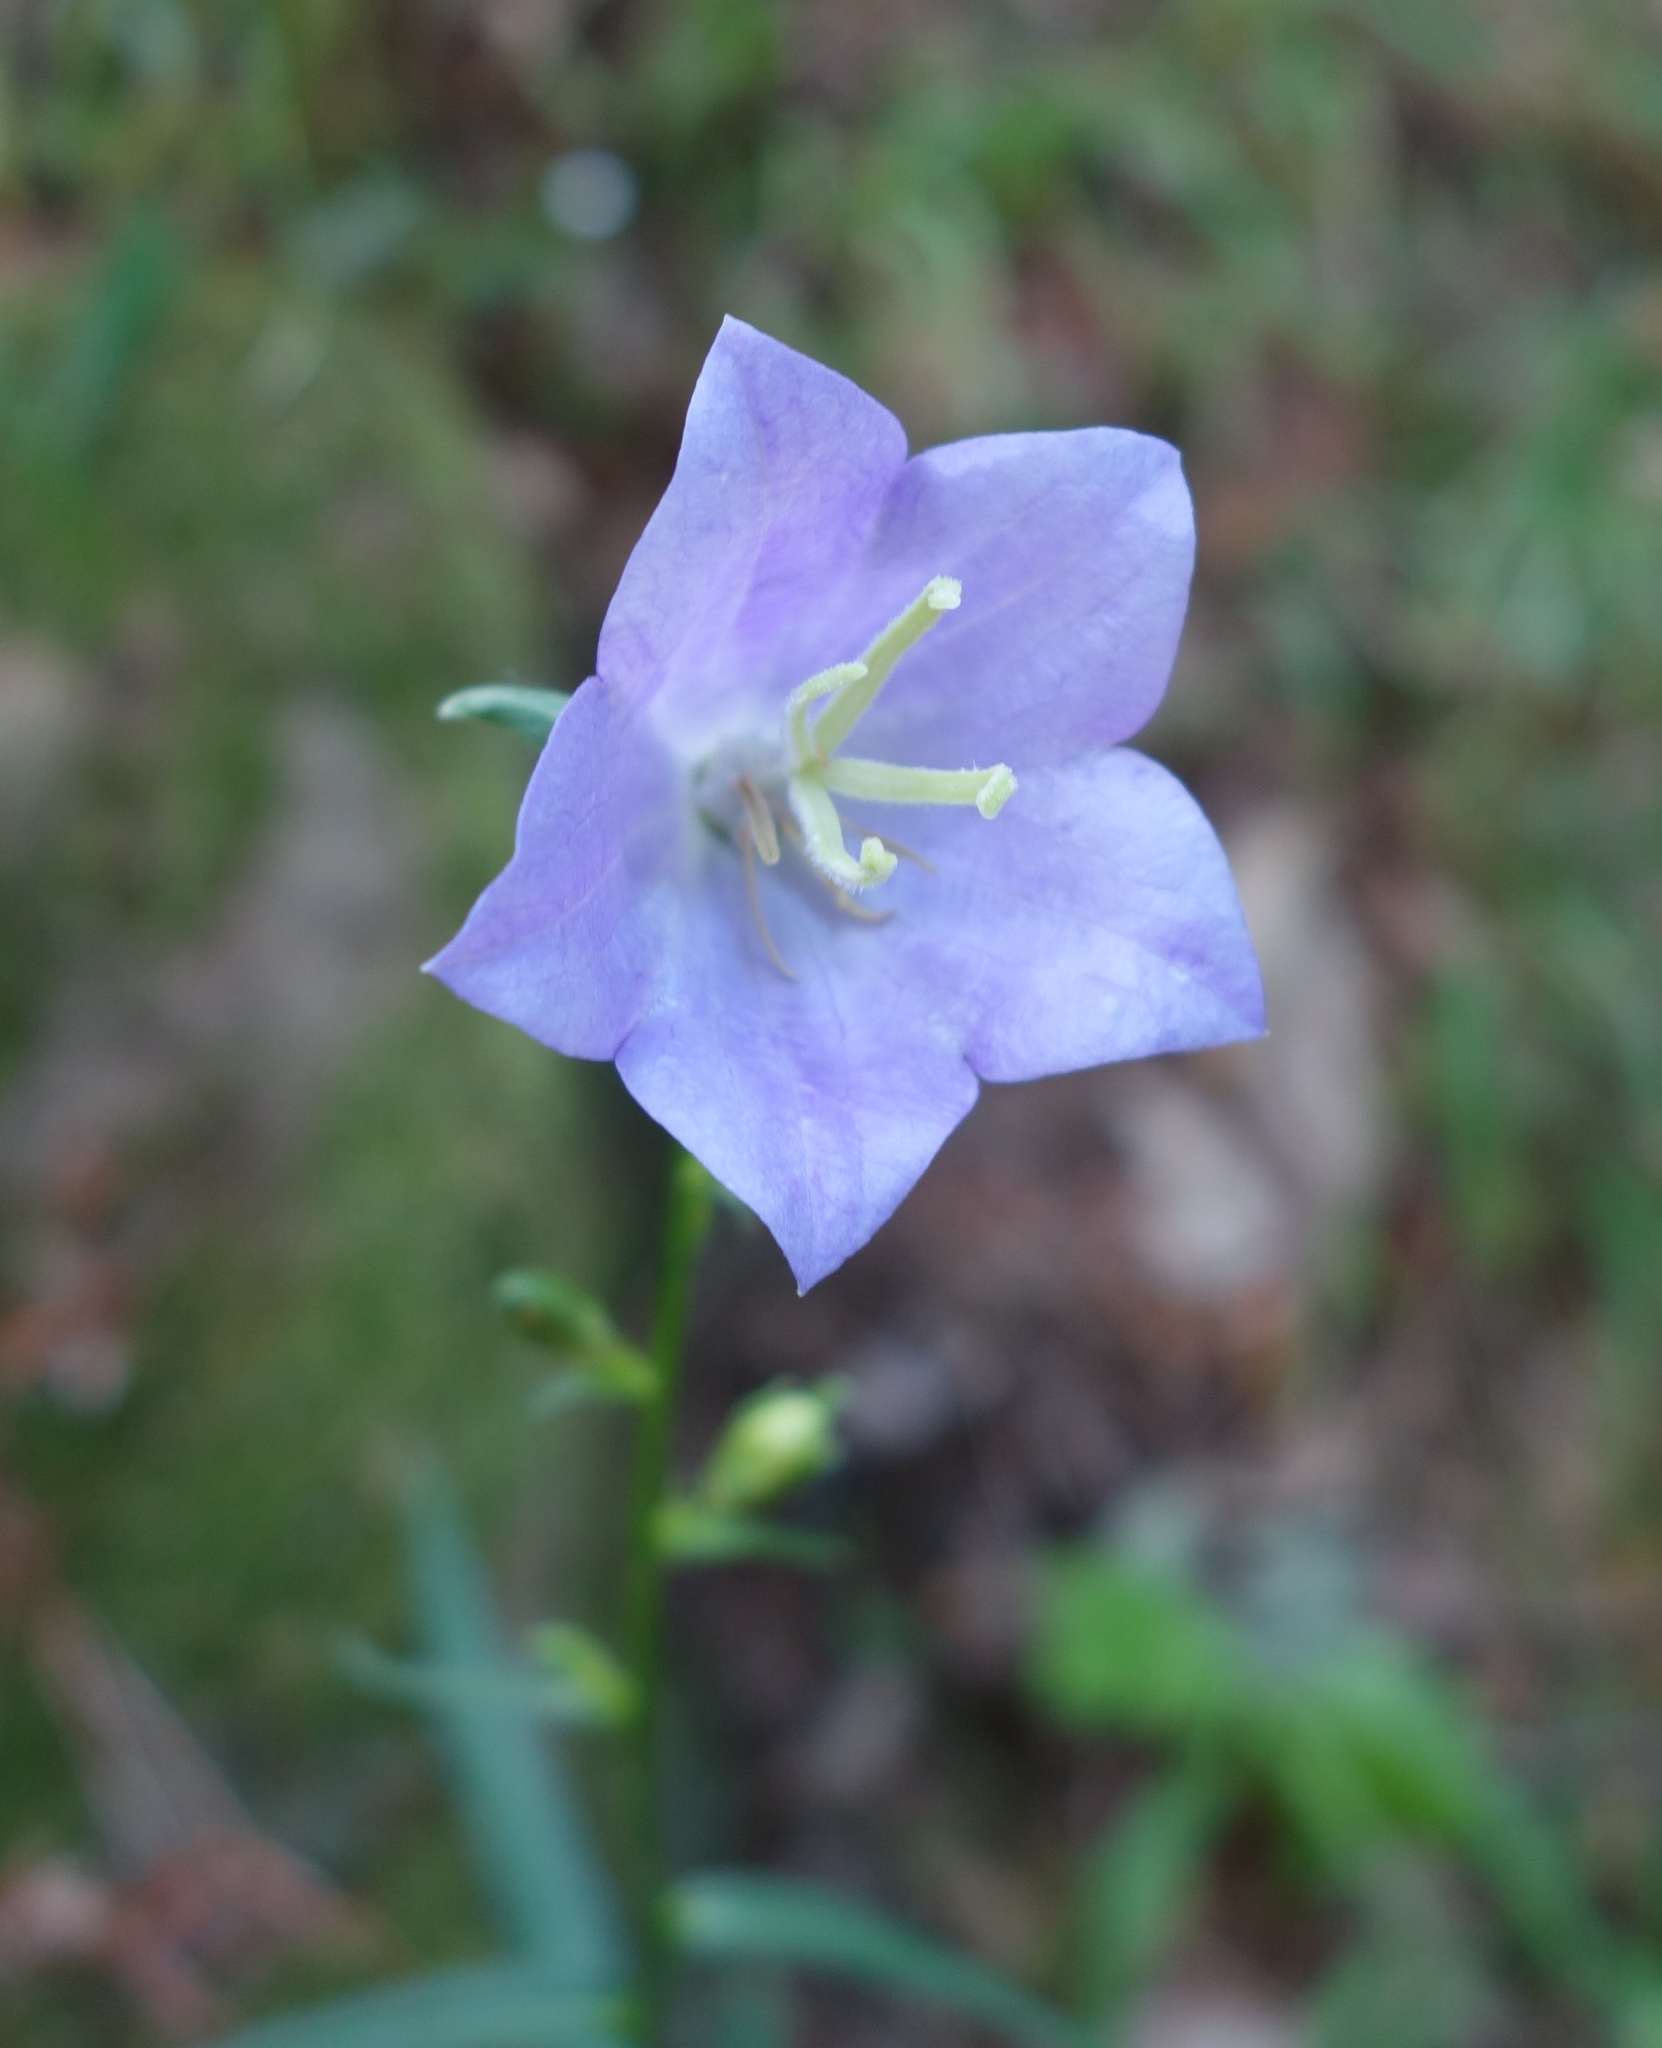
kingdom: Plantae
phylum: Tracheophyta
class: Magnoliopsida
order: Asterales
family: Campanulaceae
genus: Campanula
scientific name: Campanula persicifolia
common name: Peach-leaved bellflower
